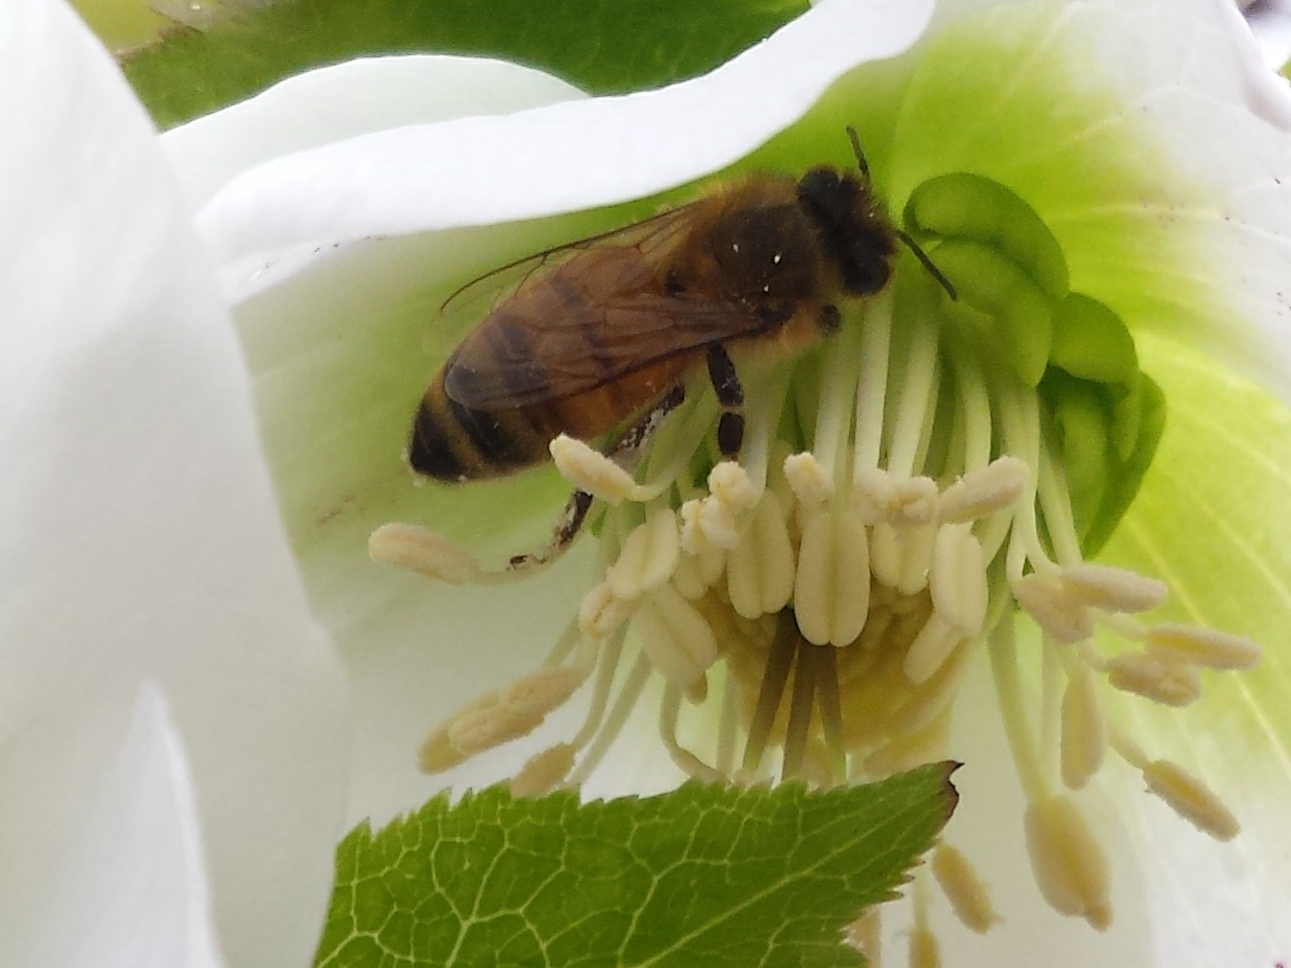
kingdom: Animalia
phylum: Arthropoda
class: Insecta
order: Hymenoptera
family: Apidae
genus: Apis
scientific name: Apis mellifera
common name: Honey bee
